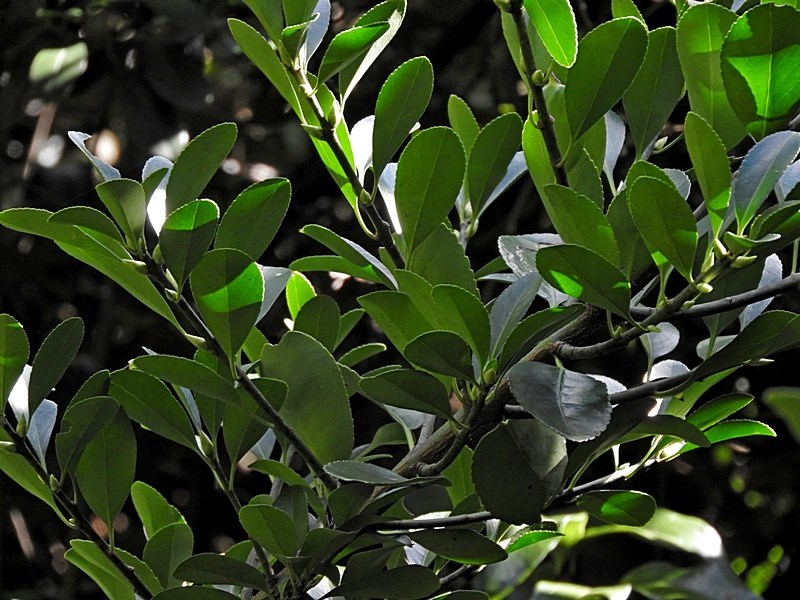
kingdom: Plantae
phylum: Tracheophyta
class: Magnoliopsida
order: Celastrales
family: Celastraceae
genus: Euonymus
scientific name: Euonymus japonicus
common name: Japanese spindletree
